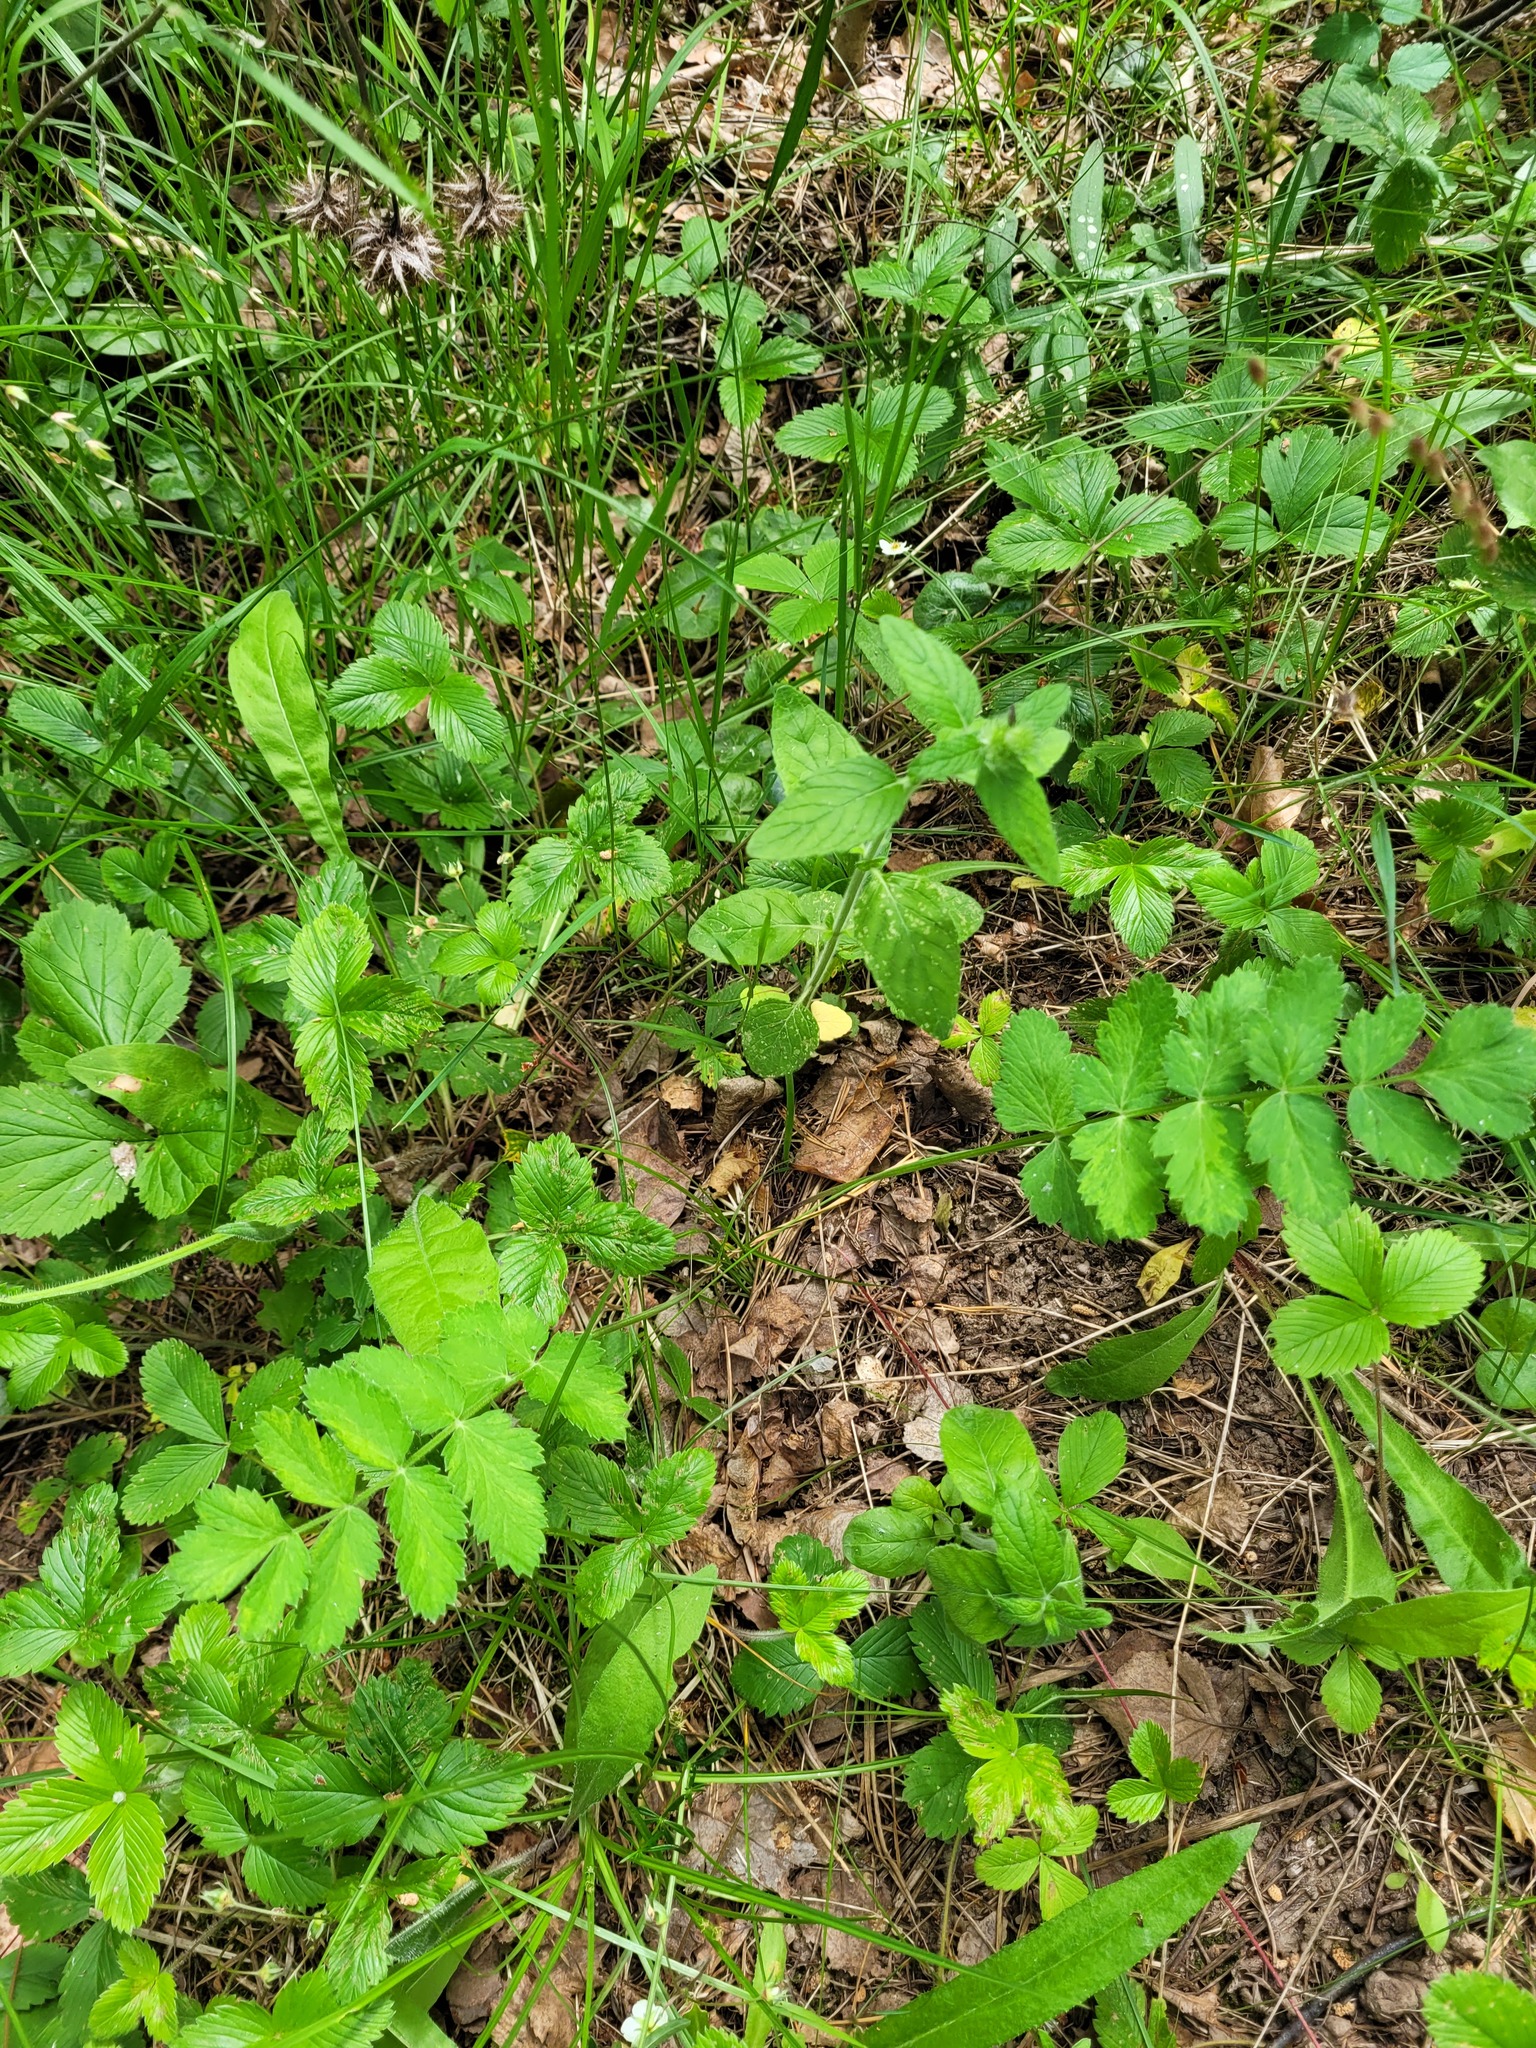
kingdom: Plantae
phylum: Tracheophyta
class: Magnoliopsida
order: Apiales
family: Apiaceae
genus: Pimpinella
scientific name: Pimpinella saxifraga
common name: Burnet-saxifrage
